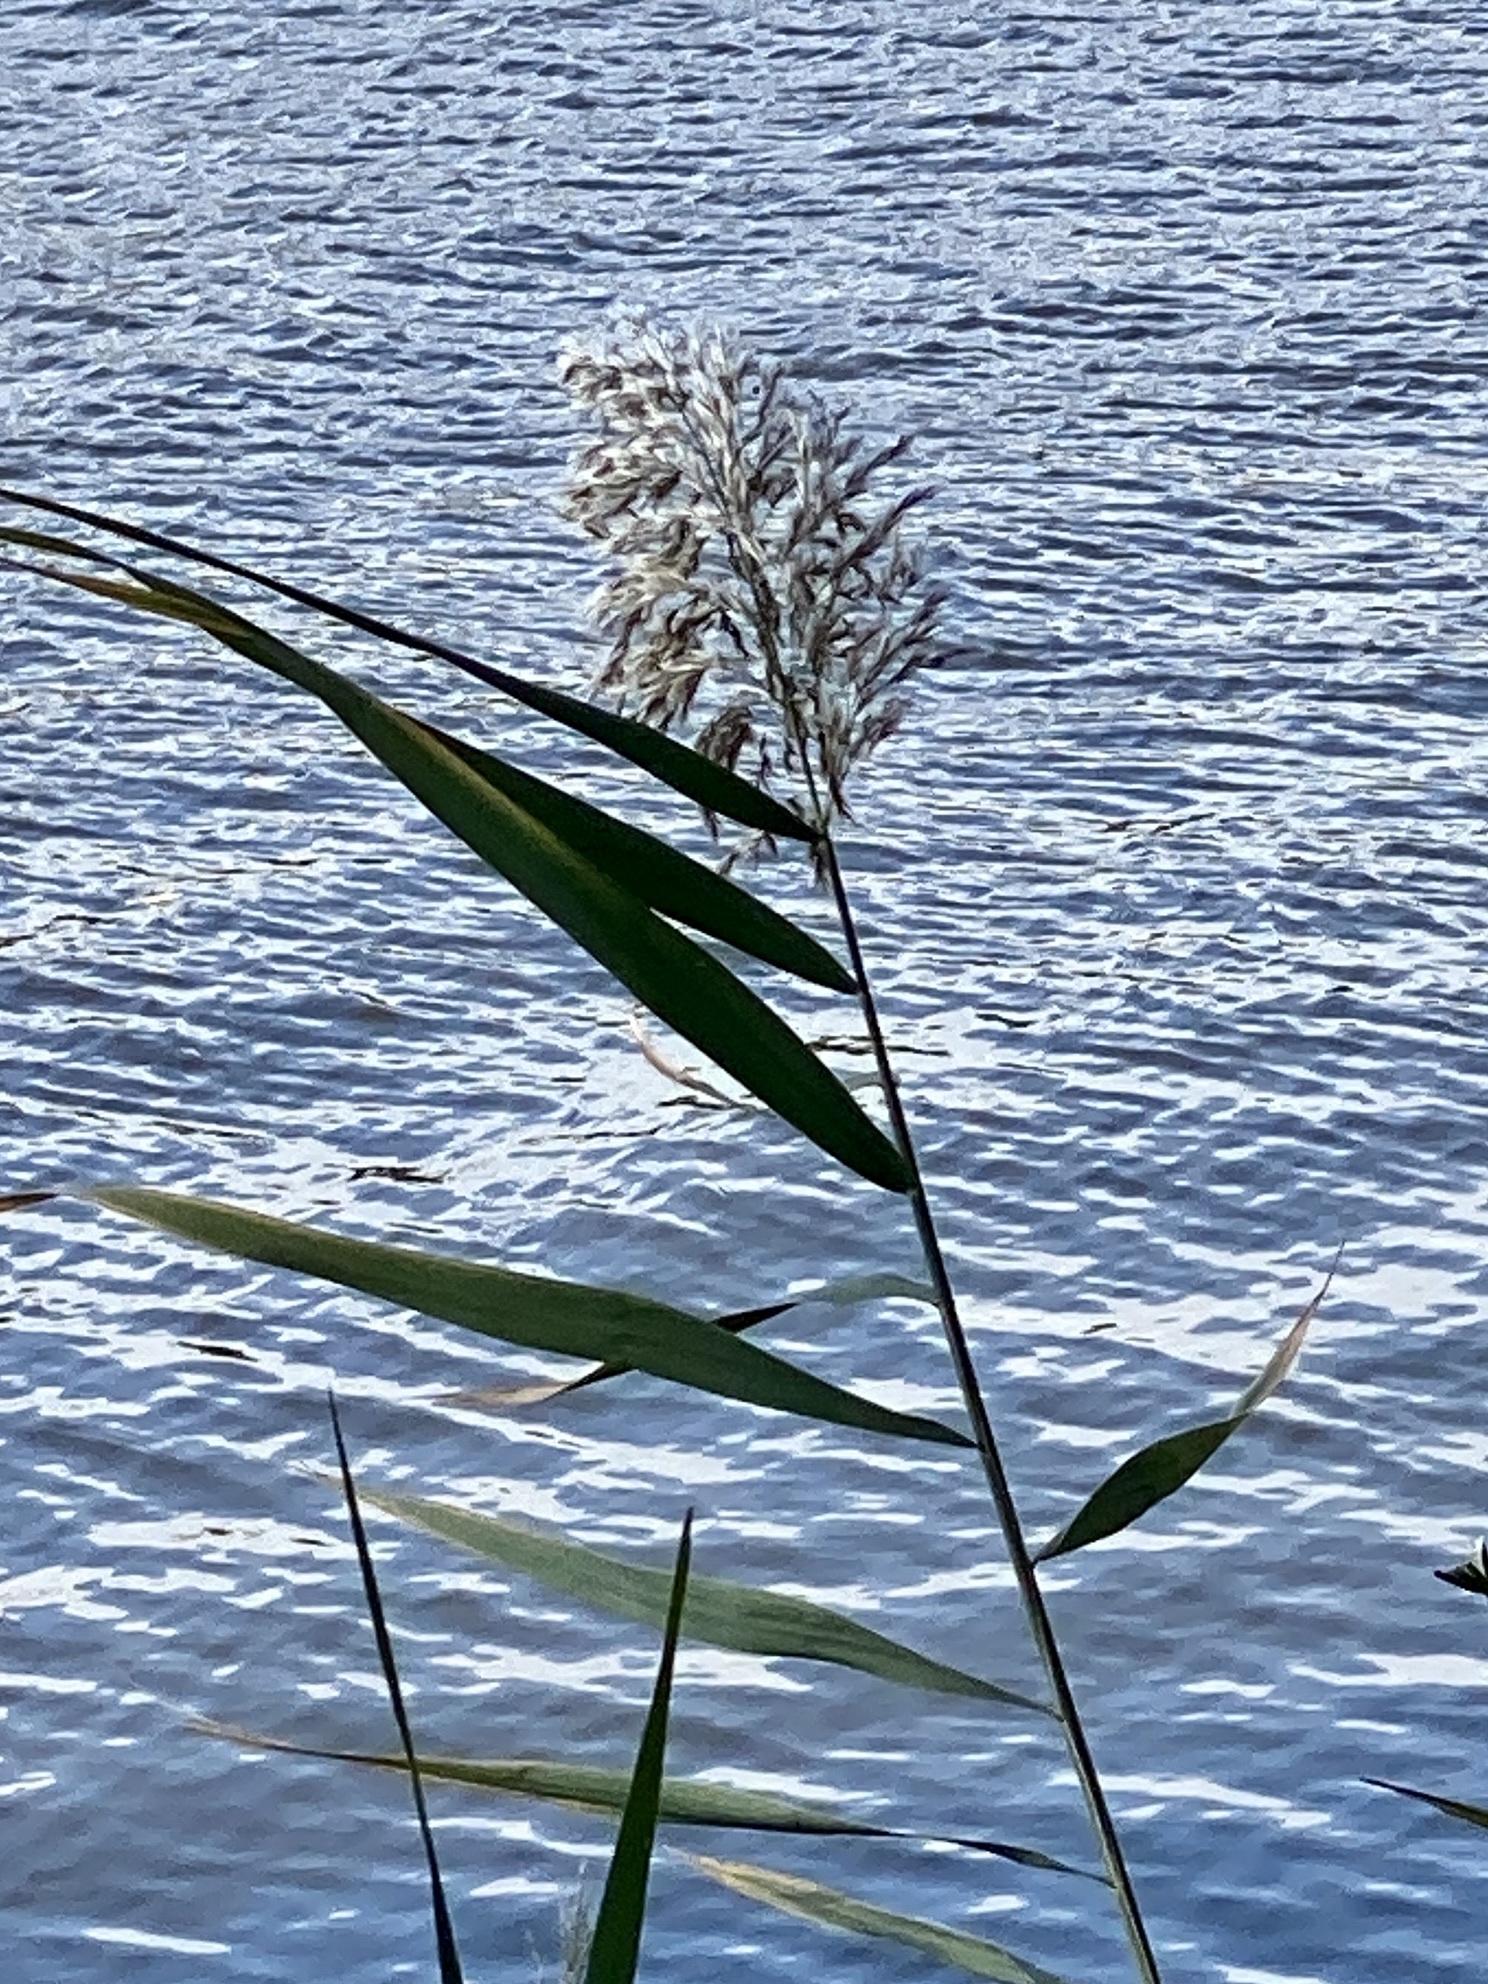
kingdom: Plantae
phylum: Tracheophyta
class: Liliopsida
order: Poales
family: Poaceae
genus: Phragmites
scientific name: Phragmites australis
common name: Common reed
